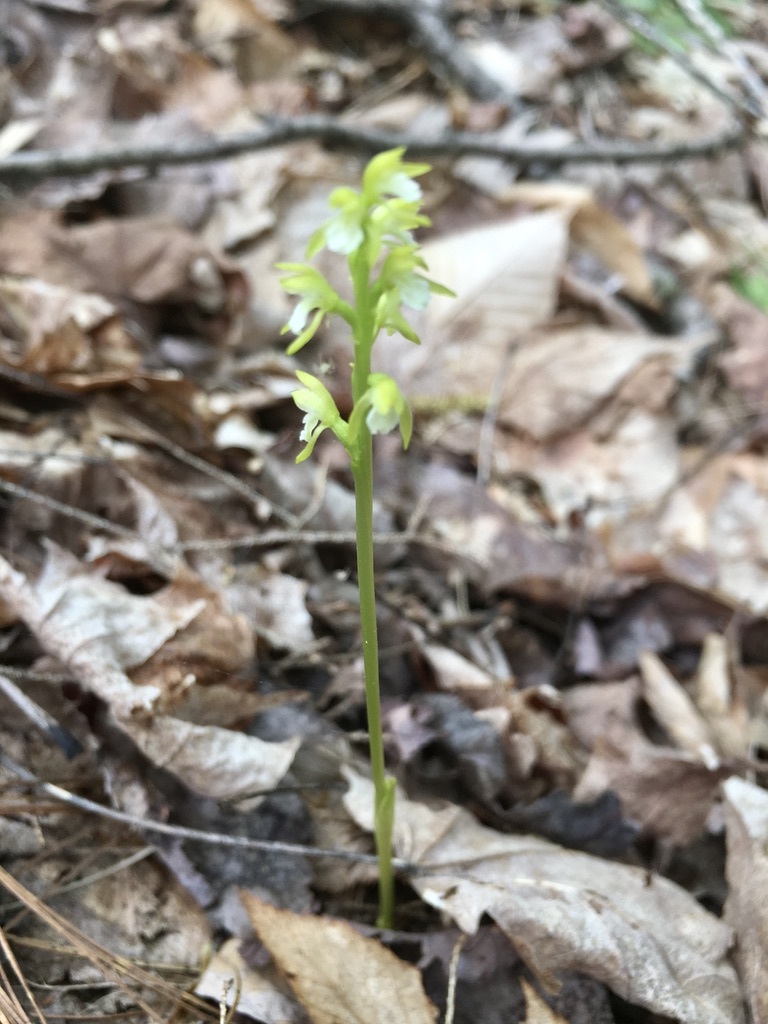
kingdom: Plantae
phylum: Tracheophyta
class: Liliopsida
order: Asparagales
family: Orchidaceae
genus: Corallorhiza
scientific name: Corallorhiza trifida
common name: Yellow coralroot
